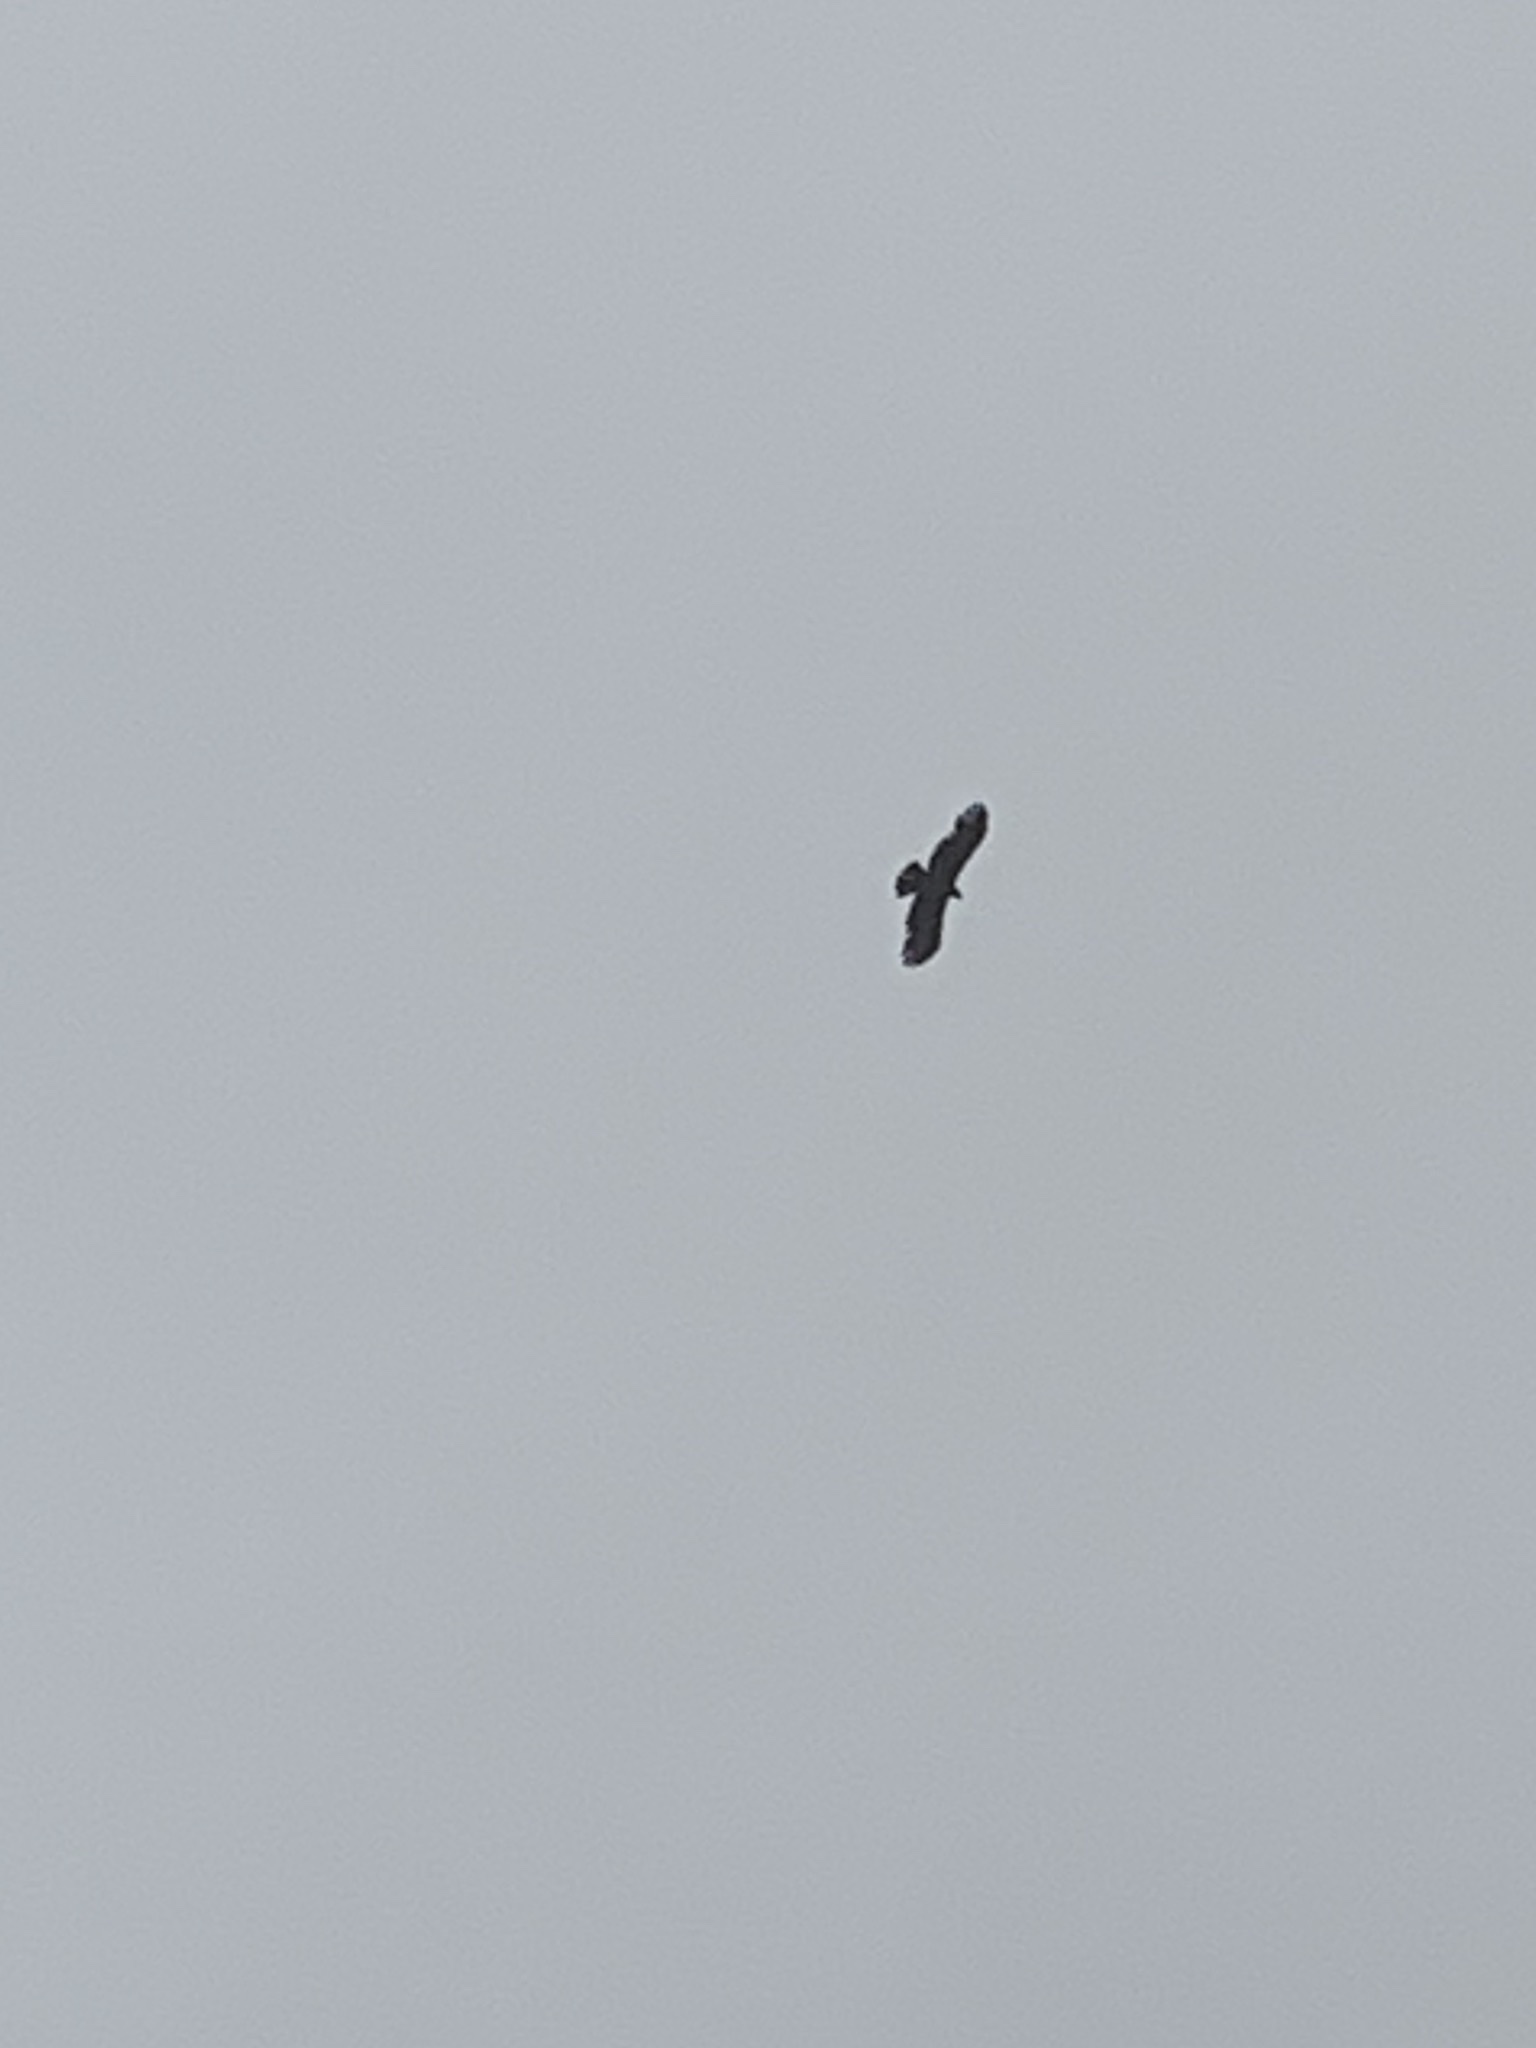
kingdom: Animalia
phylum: Chordata
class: Aves
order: Accipitriformes
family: Accipitridae
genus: Ictinaetus
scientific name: Ictinaetus malayensis
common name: Black eagle
